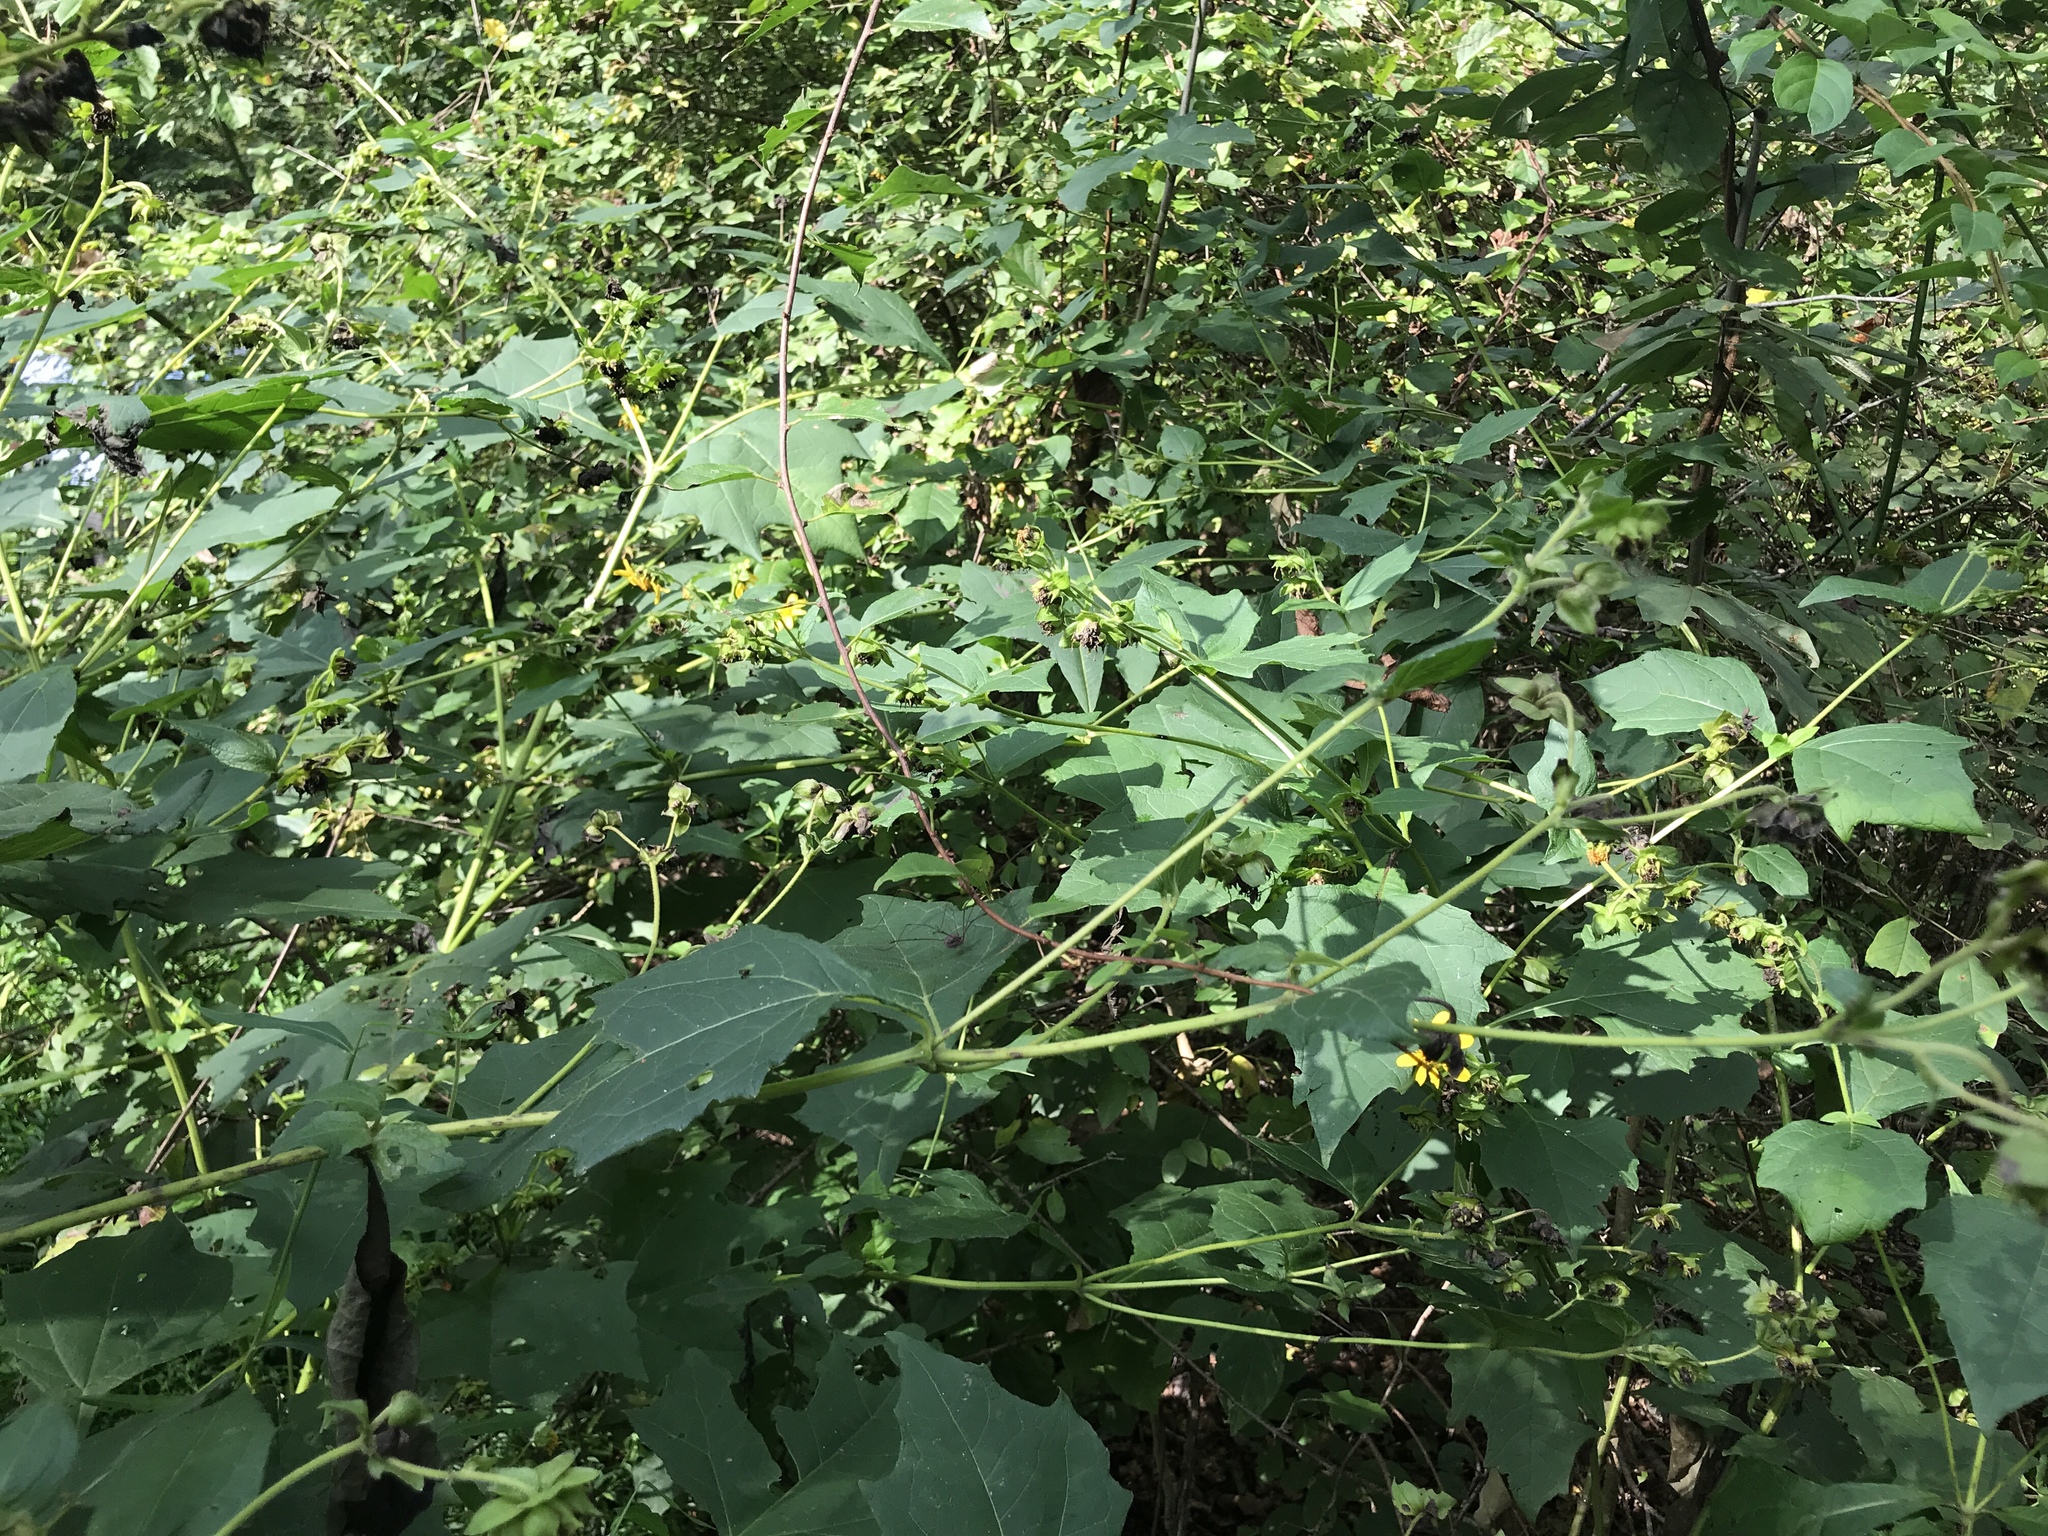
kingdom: Plantae
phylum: Tracheophyta
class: Magnoliopsida
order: Asterales
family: Asteraceae
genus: Smallanthus
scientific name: Smallanthus uvedalia
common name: Bear's-foot
